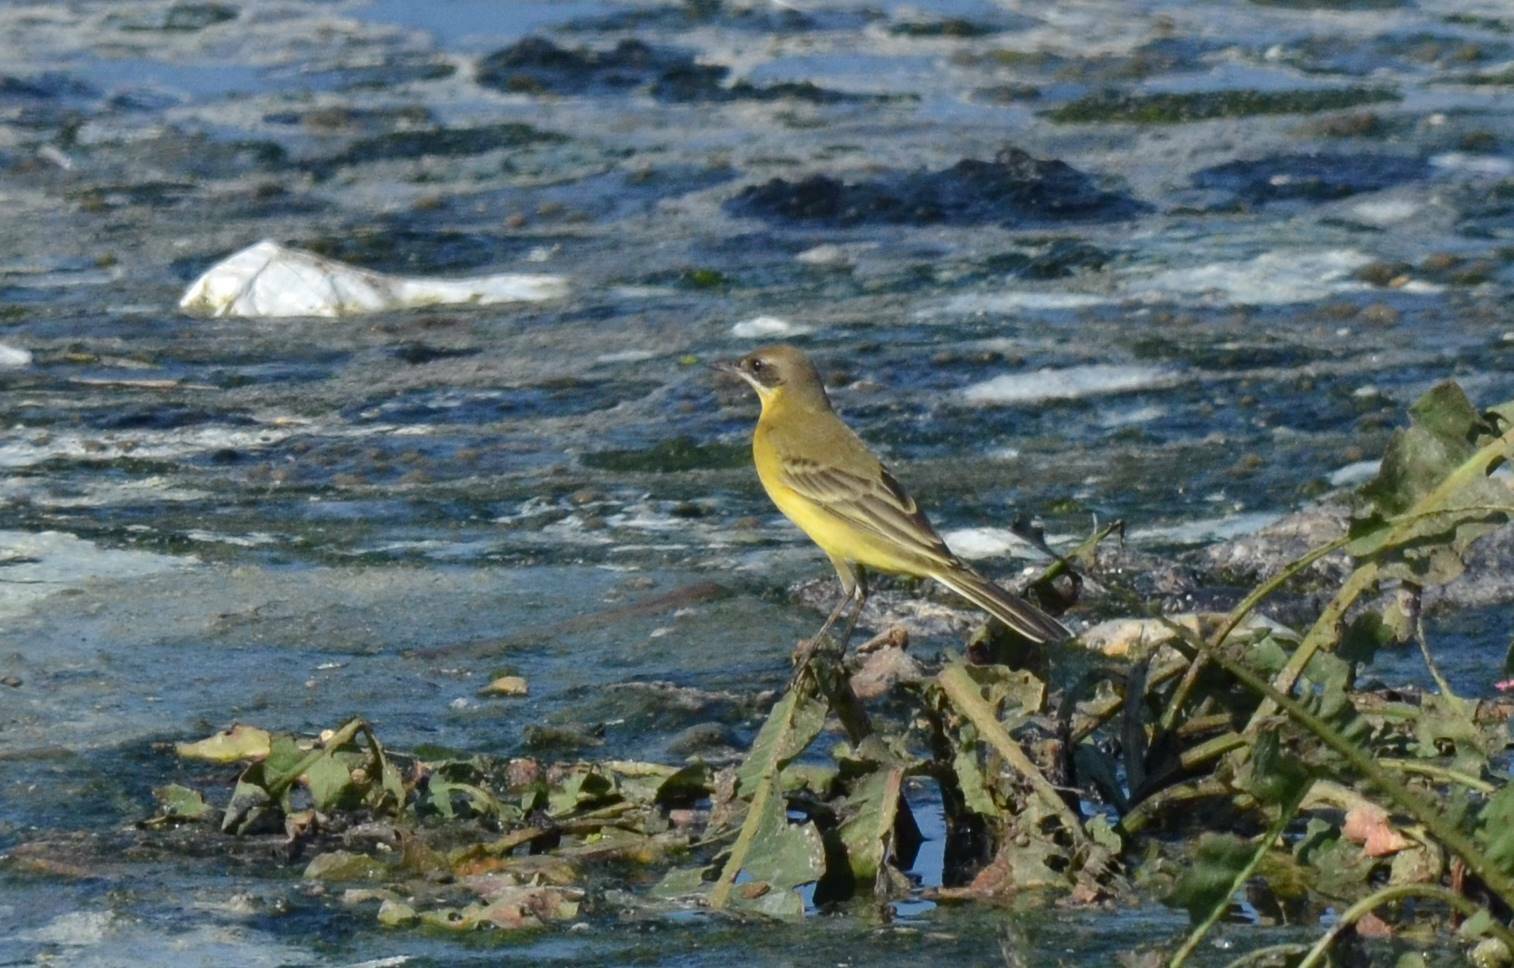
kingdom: Animalia
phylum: Chordata
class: Aves
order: Passeriformes
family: Motacillidae
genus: Motacilla
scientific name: Motacilla flava
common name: Western yellow wagtail
